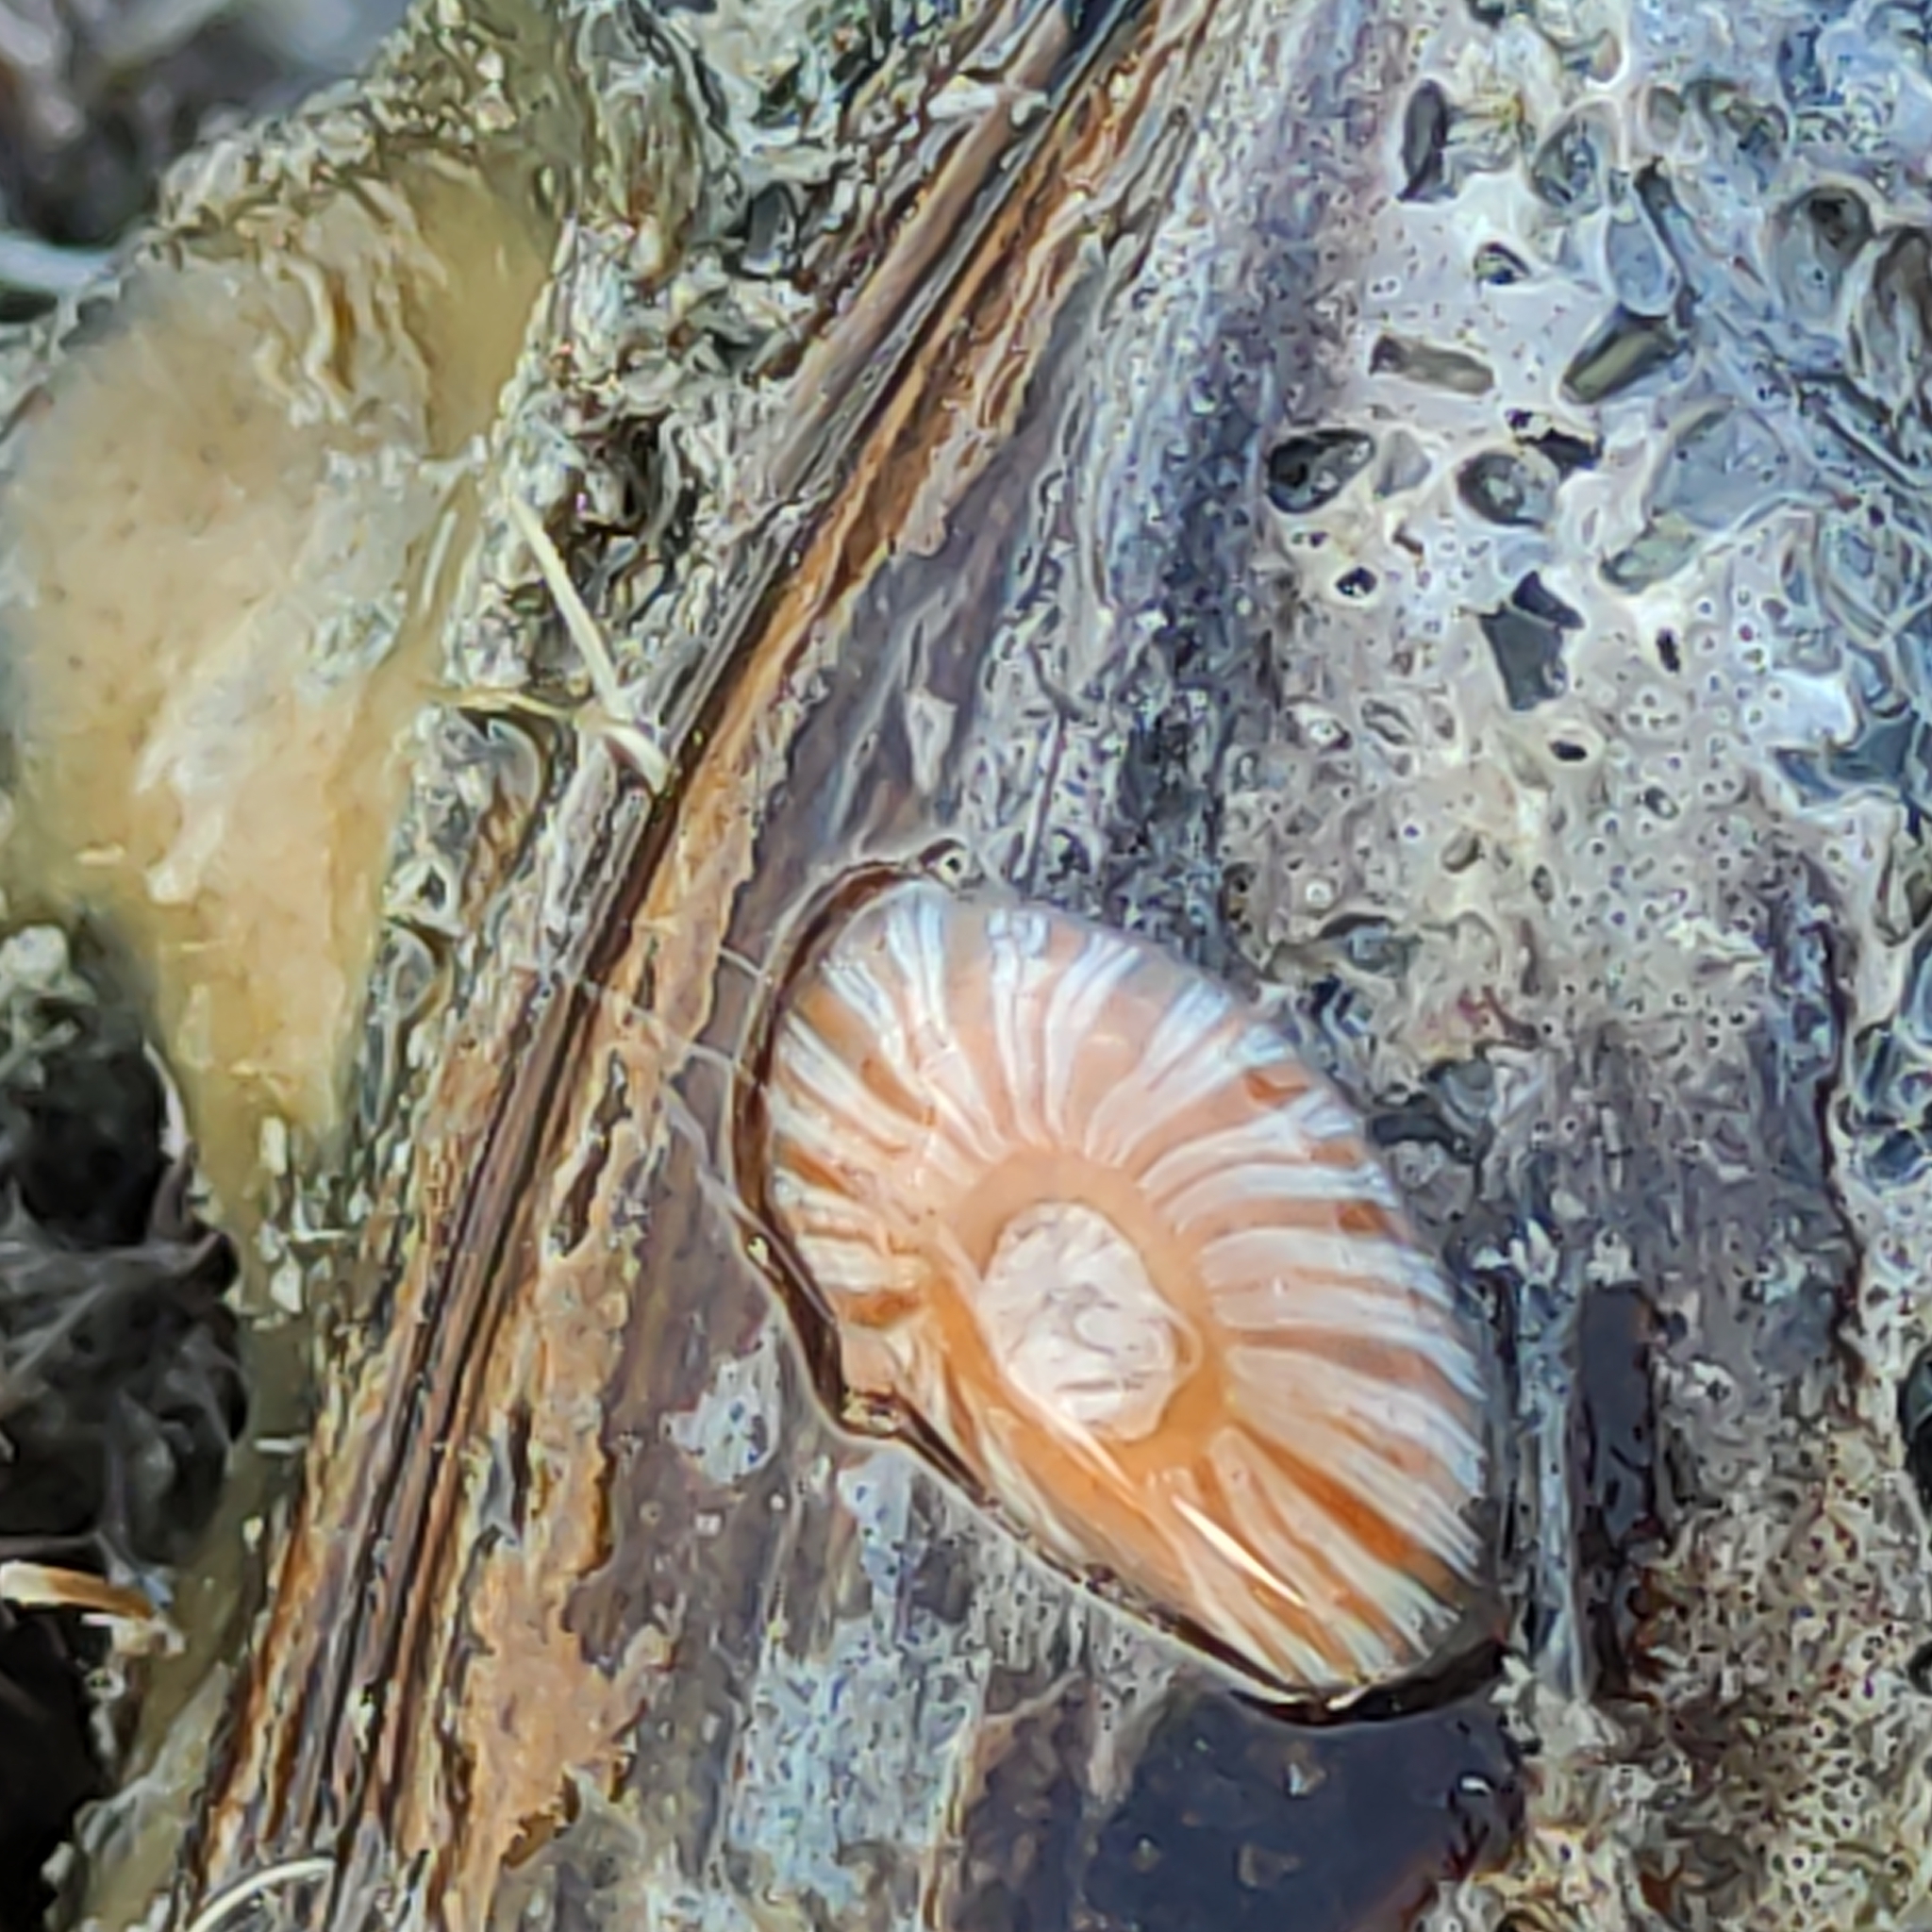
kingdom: Animalia
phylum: Cnidaria
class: Anthozoa
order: Actiniaria
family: Sagartiidae
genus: Anthothoe
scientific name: Anthothoe albocincta
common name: Orange striped anemone
